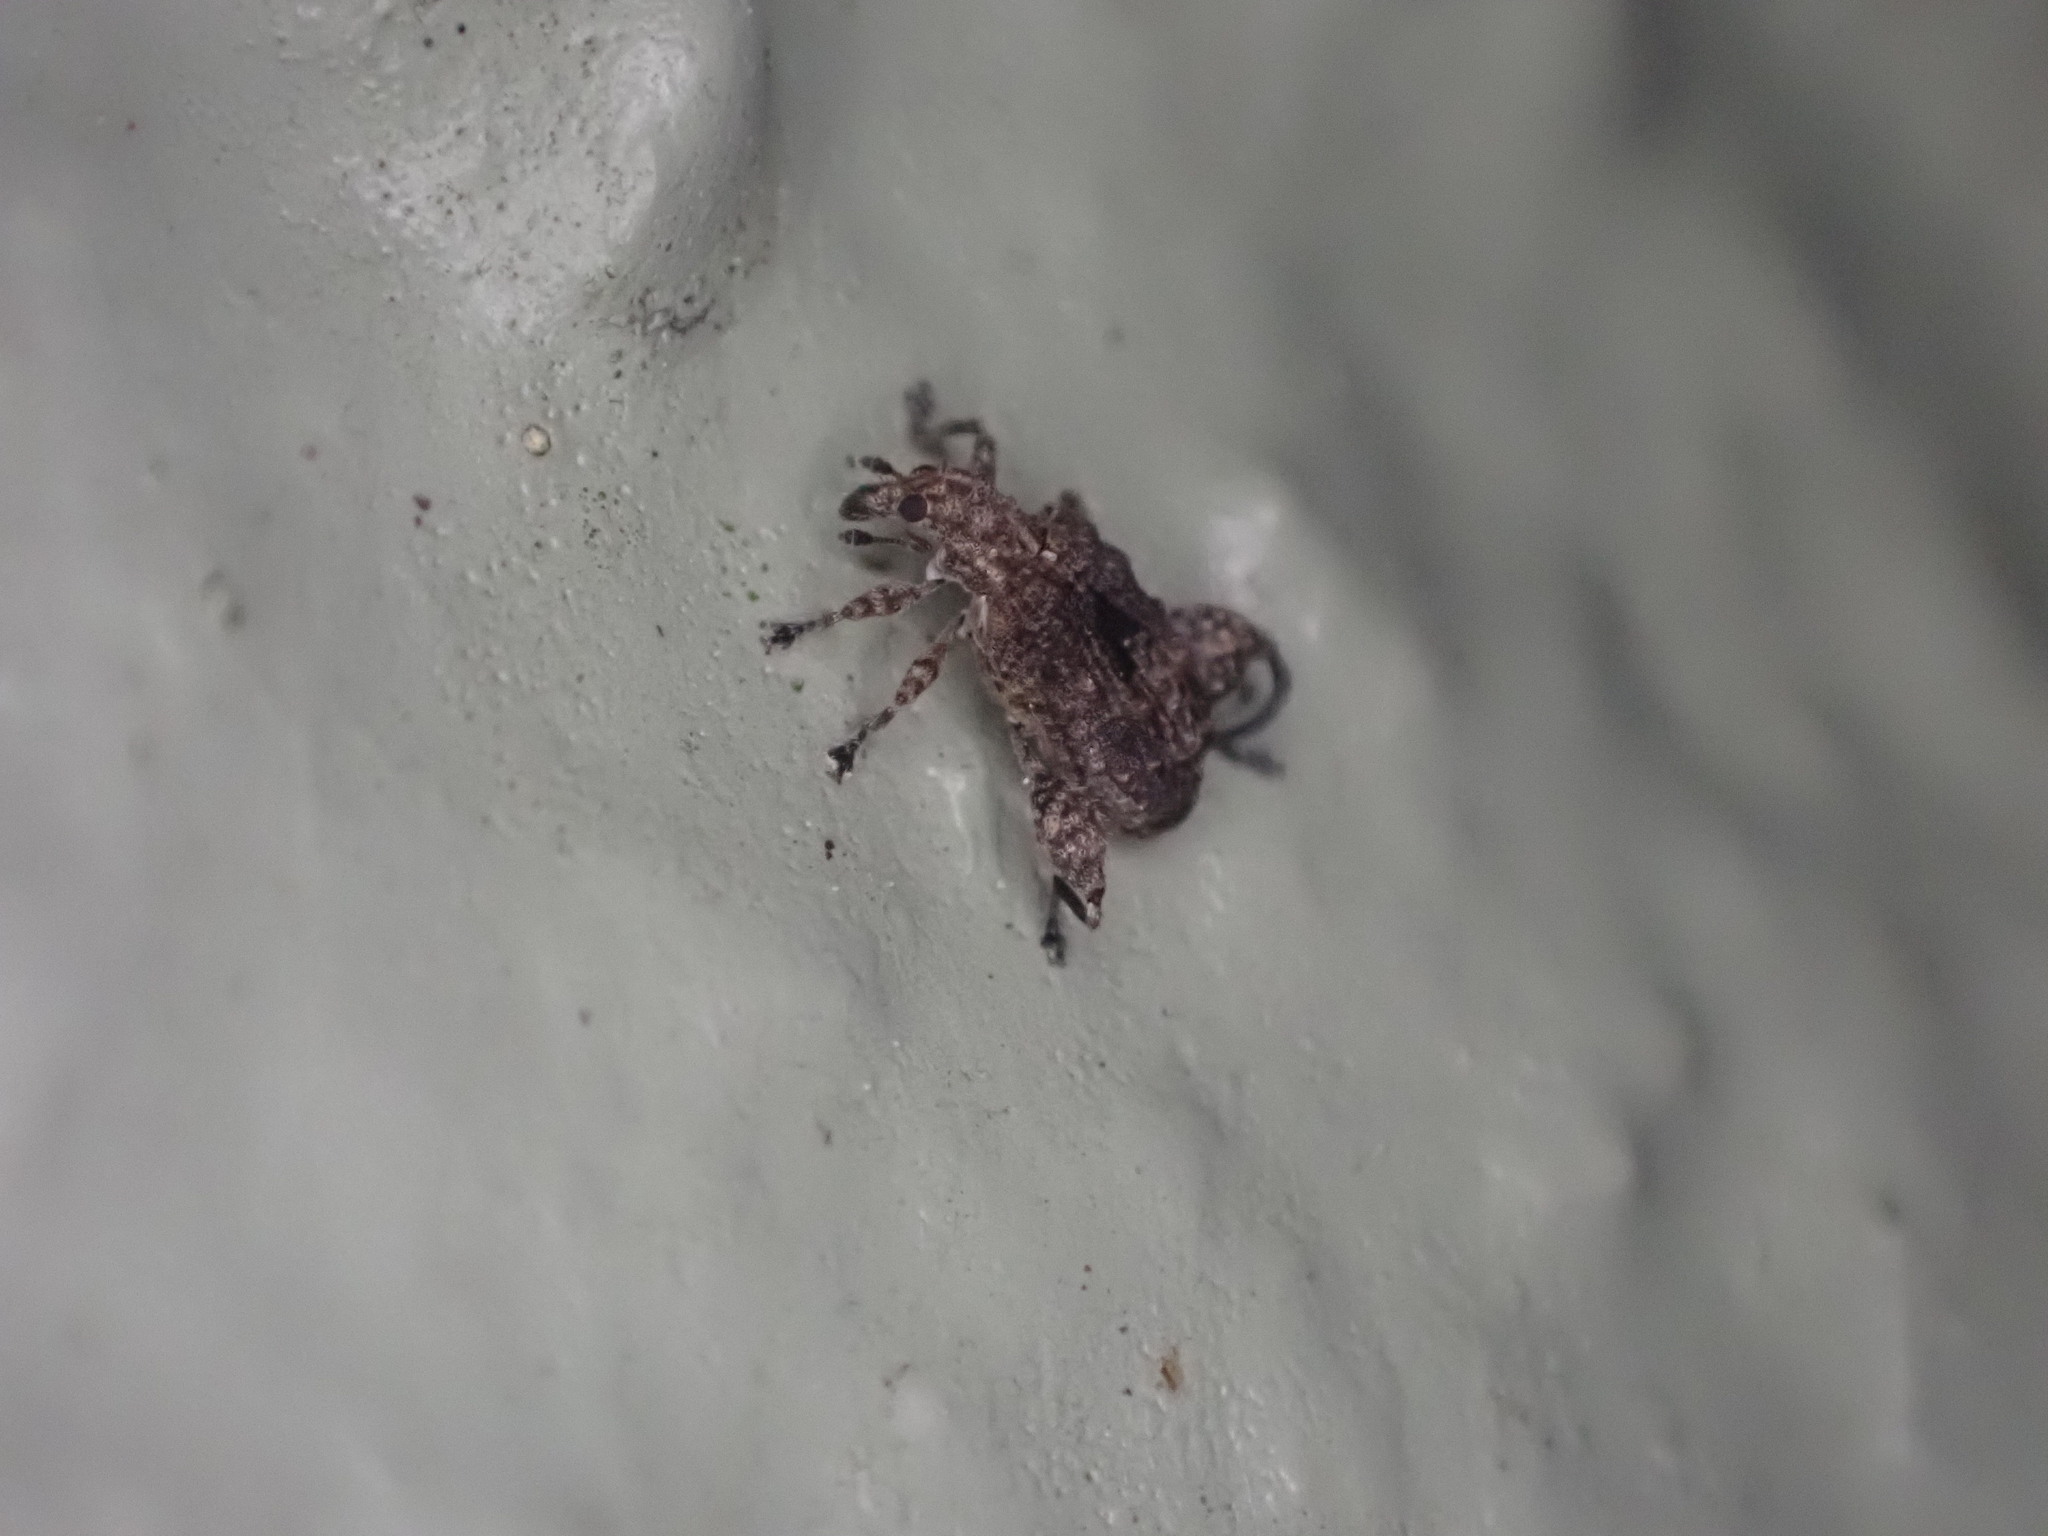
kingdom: Animalia
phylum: Arthropoda
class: Insecta
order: Coleoptera
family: Curculionidae
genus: Pactola
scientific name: Pactola variabilis
